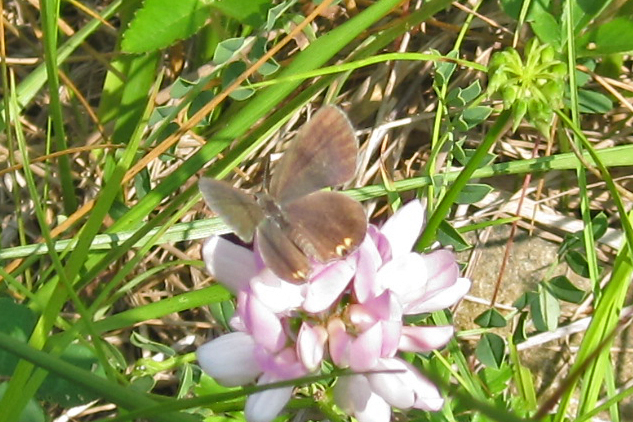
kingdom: Animalia
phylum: Arthropoda
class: Insecta
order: Lepidoptera
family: Lycaenidae
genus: Elkalyce
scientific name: Elkalyce comyntas
